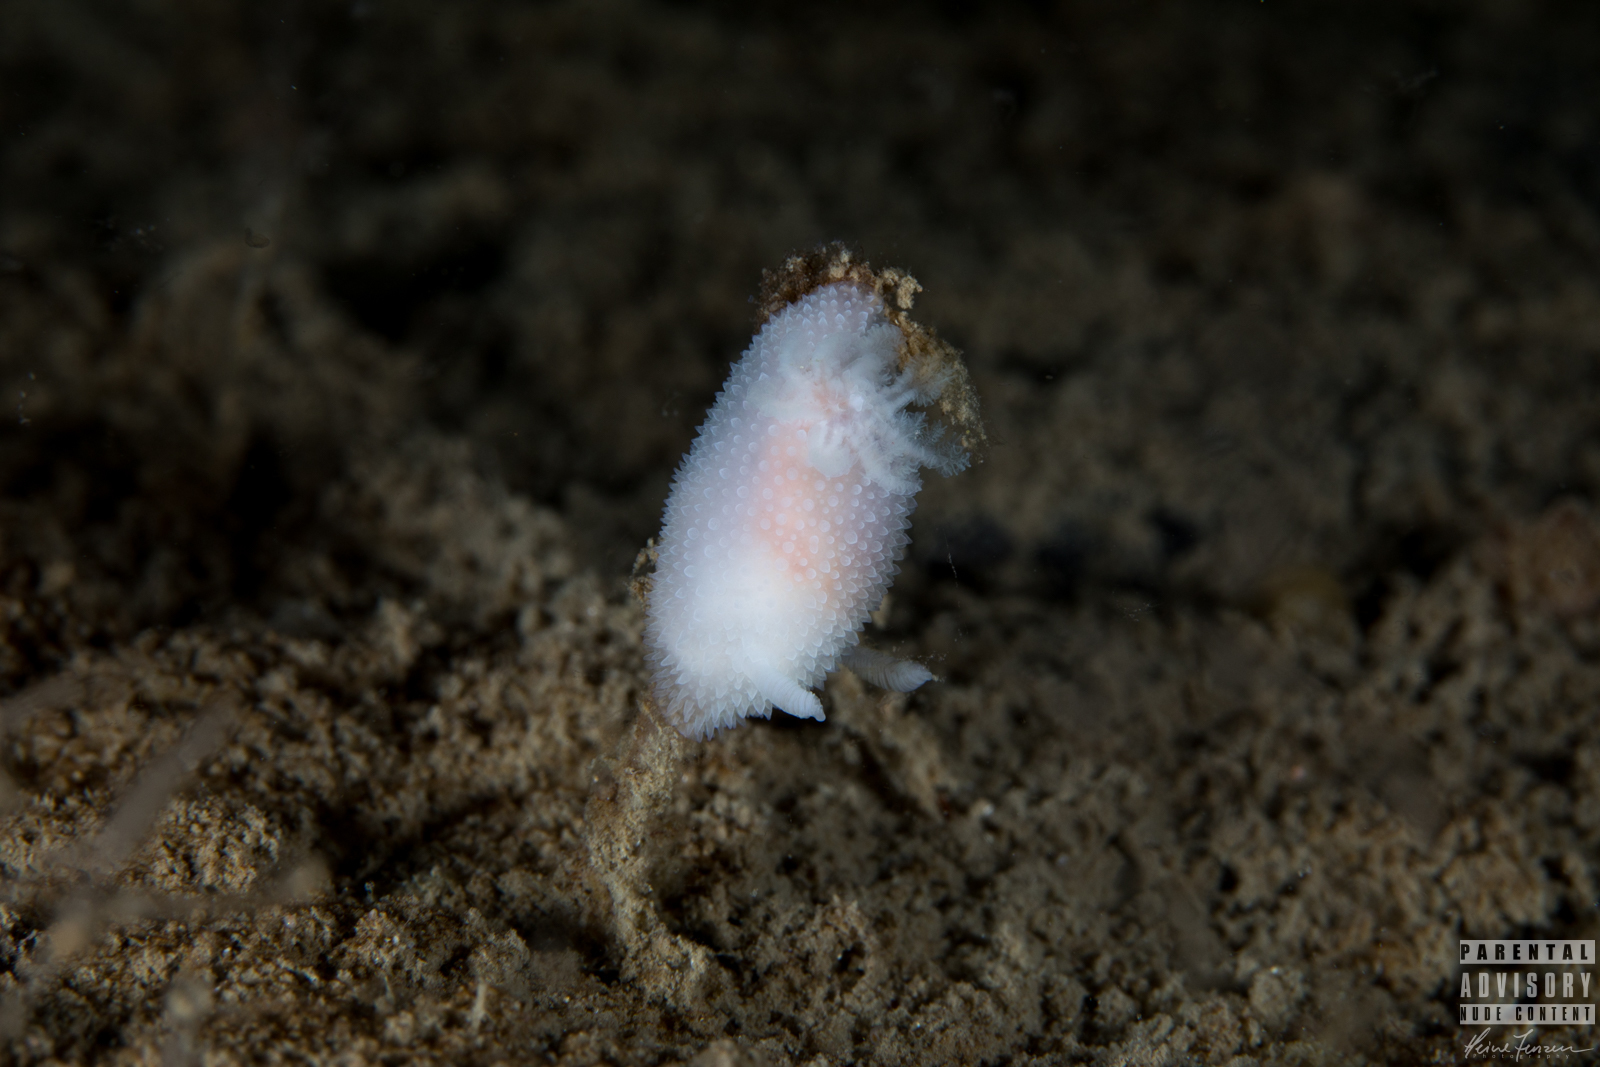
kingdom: Animalia
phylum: Mollusca
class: Gastropoda
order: Nudibranchia
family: Onchidorididae
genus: Acanthodoris
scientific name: Acanthodoris pilosa
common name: Hairy spiny doris
